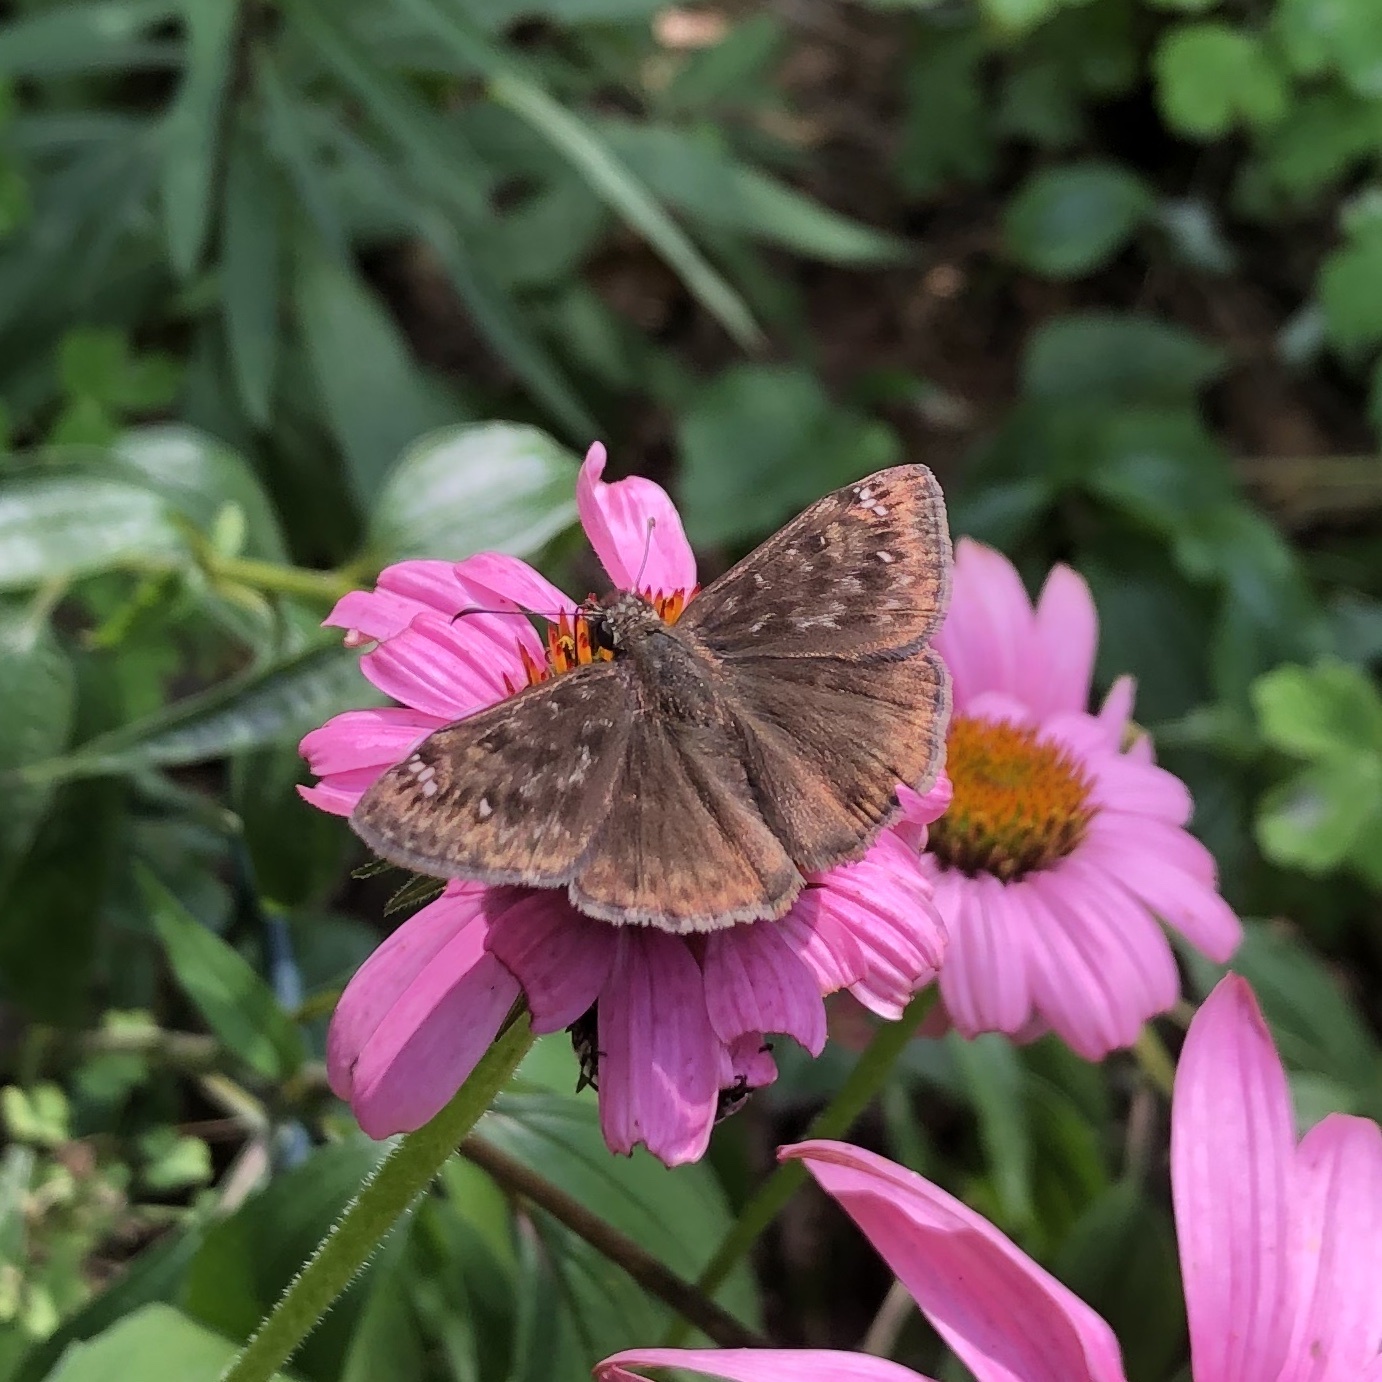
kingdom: Animalia
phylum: Arthropoda
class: Insecta
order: Lepidoptera
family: Hesperiidae
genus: Erynnis
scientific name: Erynnis horatius
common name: Horace's duskywing
